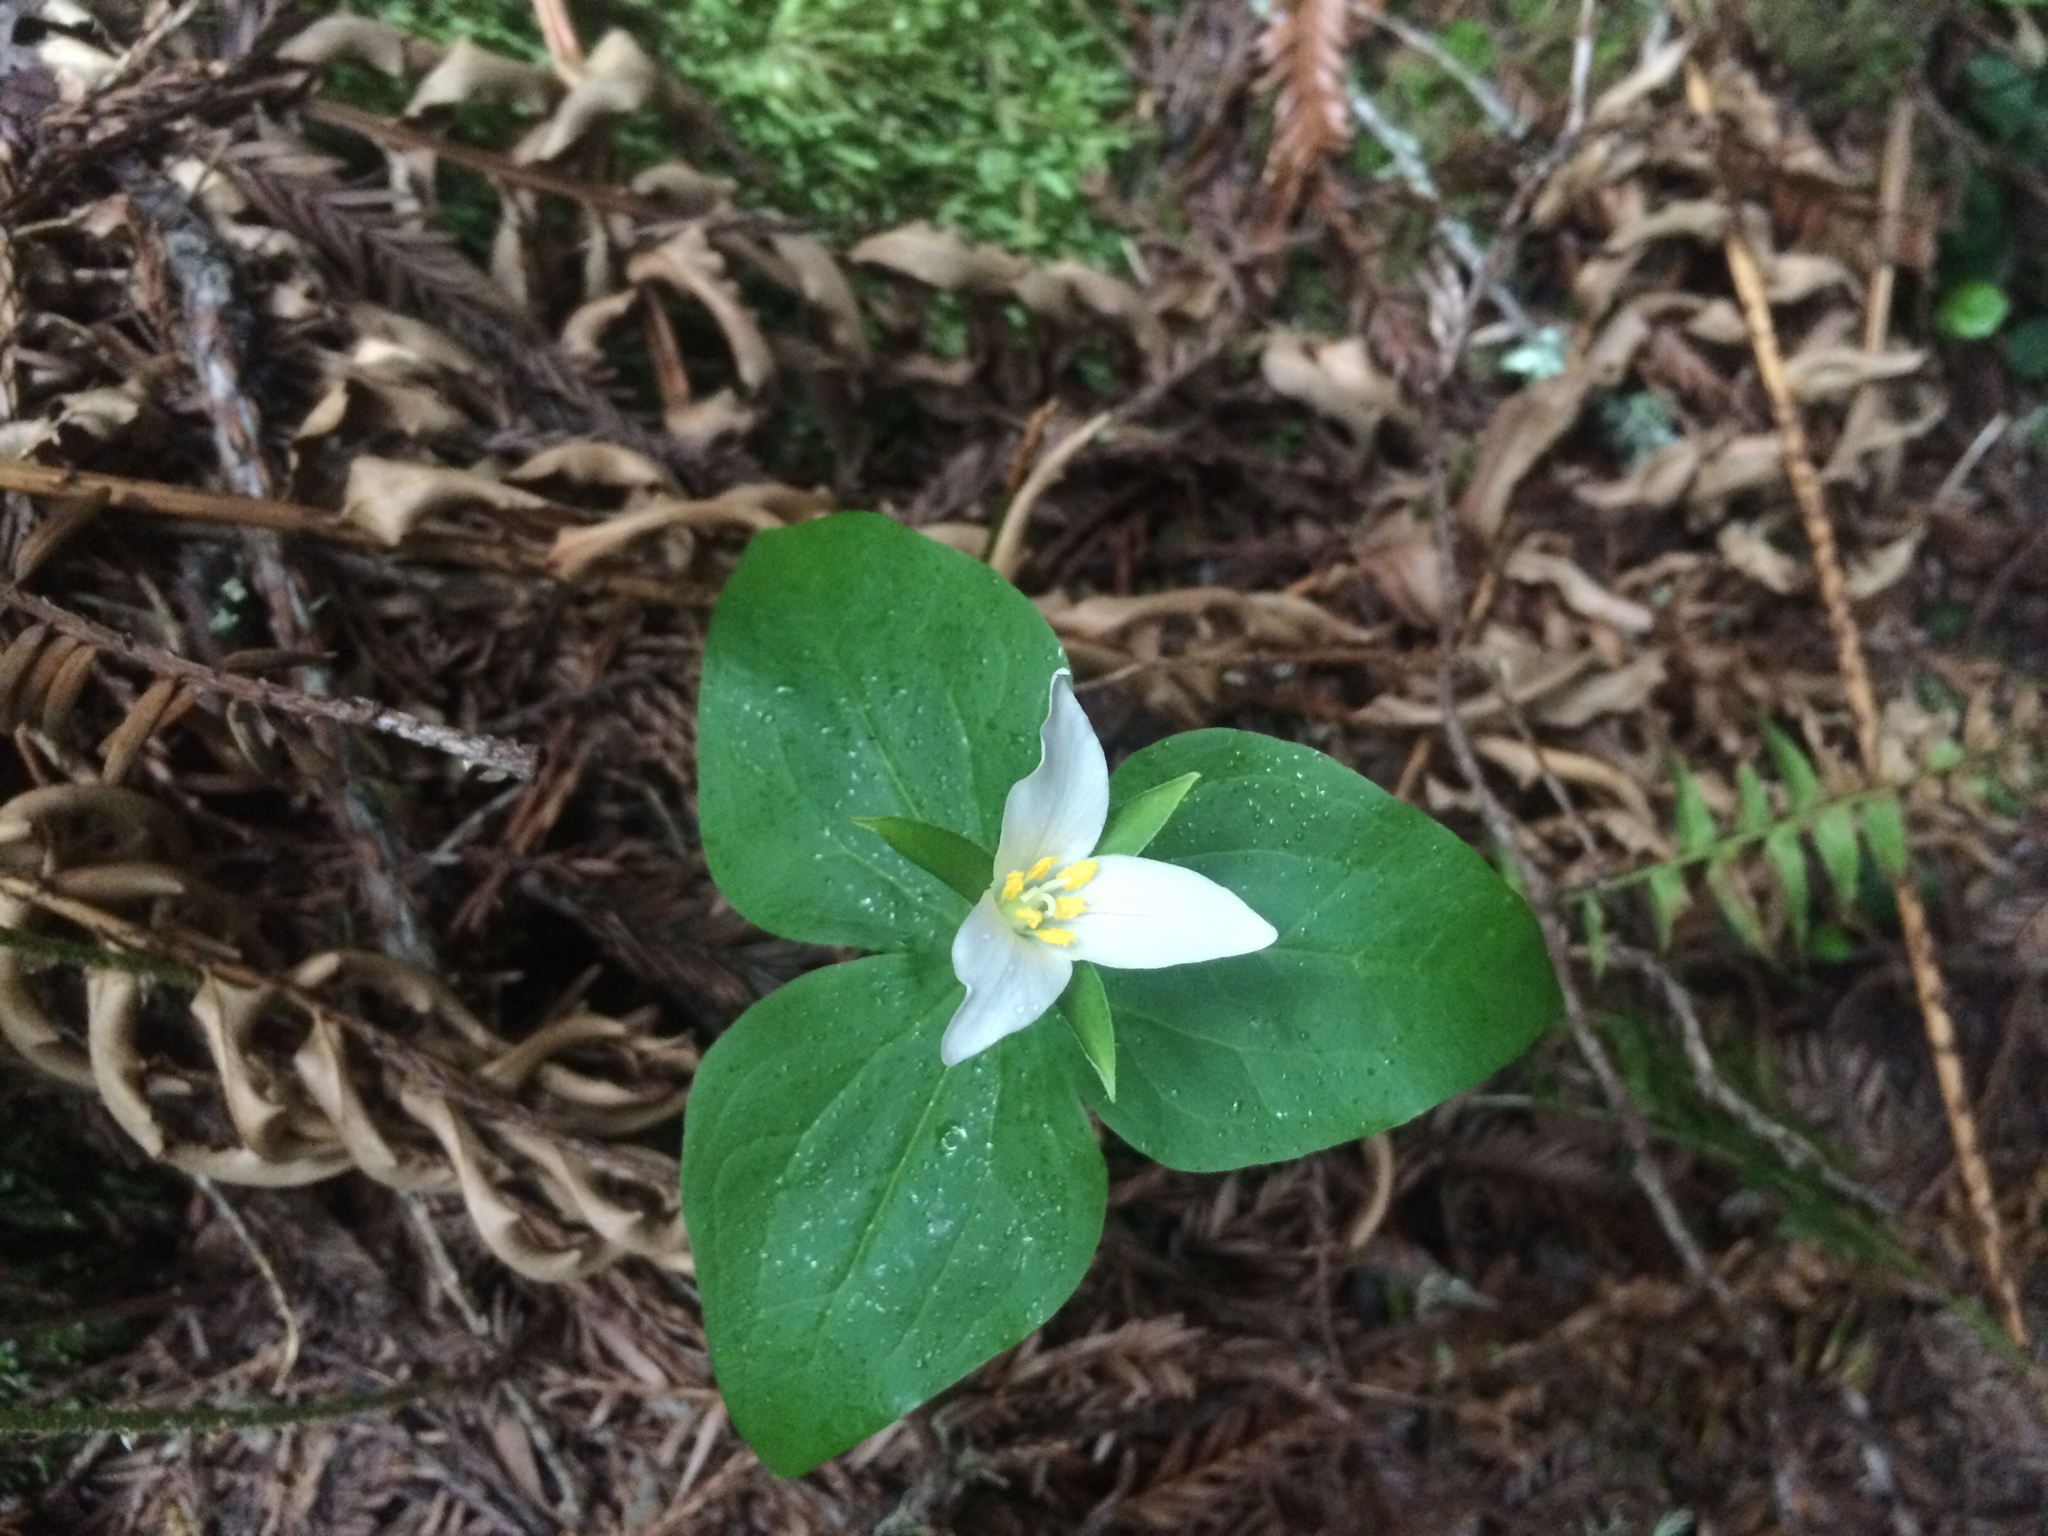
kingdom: Plantae
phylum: Tracheophyta
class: Liliopsida
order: Liliales
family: Melanthiaceae
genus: Trillium
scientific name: Trillium ovatum
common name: Pacific trillium
